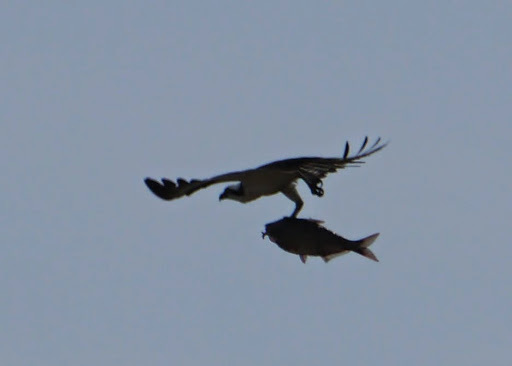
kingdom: Animalia
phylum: Chordata
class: Aves
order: Accipitriformes
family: Pandionidae
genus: Pandion
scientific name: Pandion haliaetus
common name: Osprey
